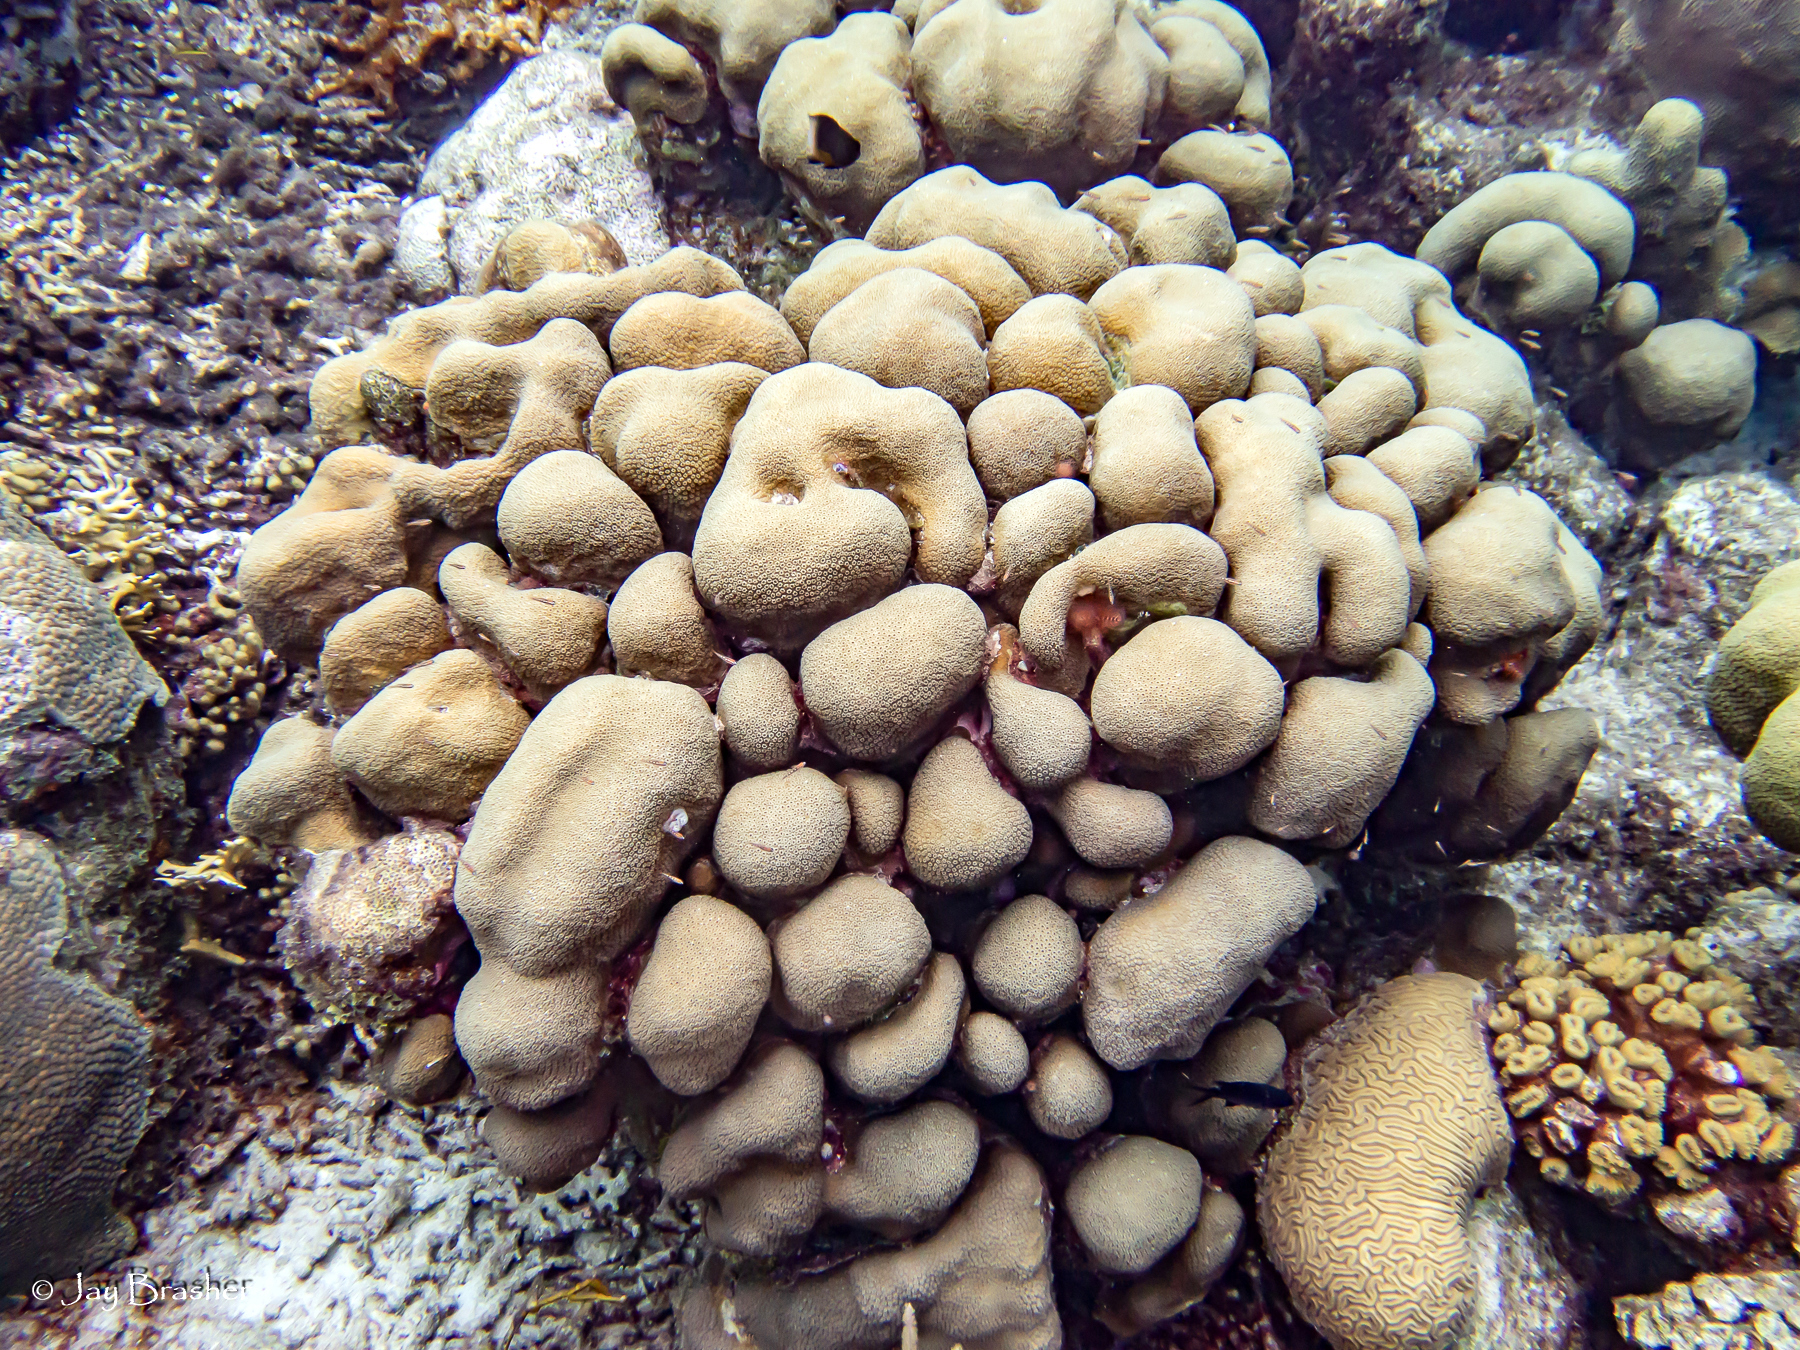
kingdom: Animalia
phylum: Cnidaria
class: Anthozoa
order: Scleractinia
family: Merulinidae
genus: Orbicella
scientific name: Orbicella annularis
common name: Boulder star coral
